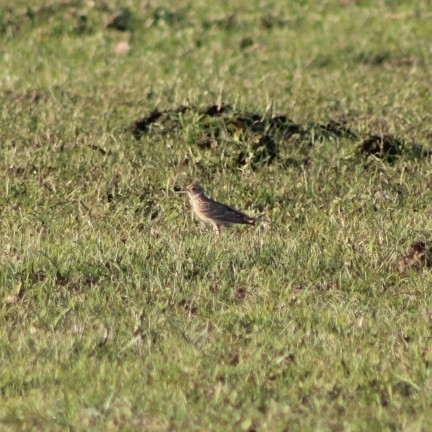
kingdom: Animalia
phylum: Chordata
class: Aves
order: Passeriformes
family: Alaudidae
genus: Alauda
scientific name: Alauda arvensis
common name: Eurasian skylark
